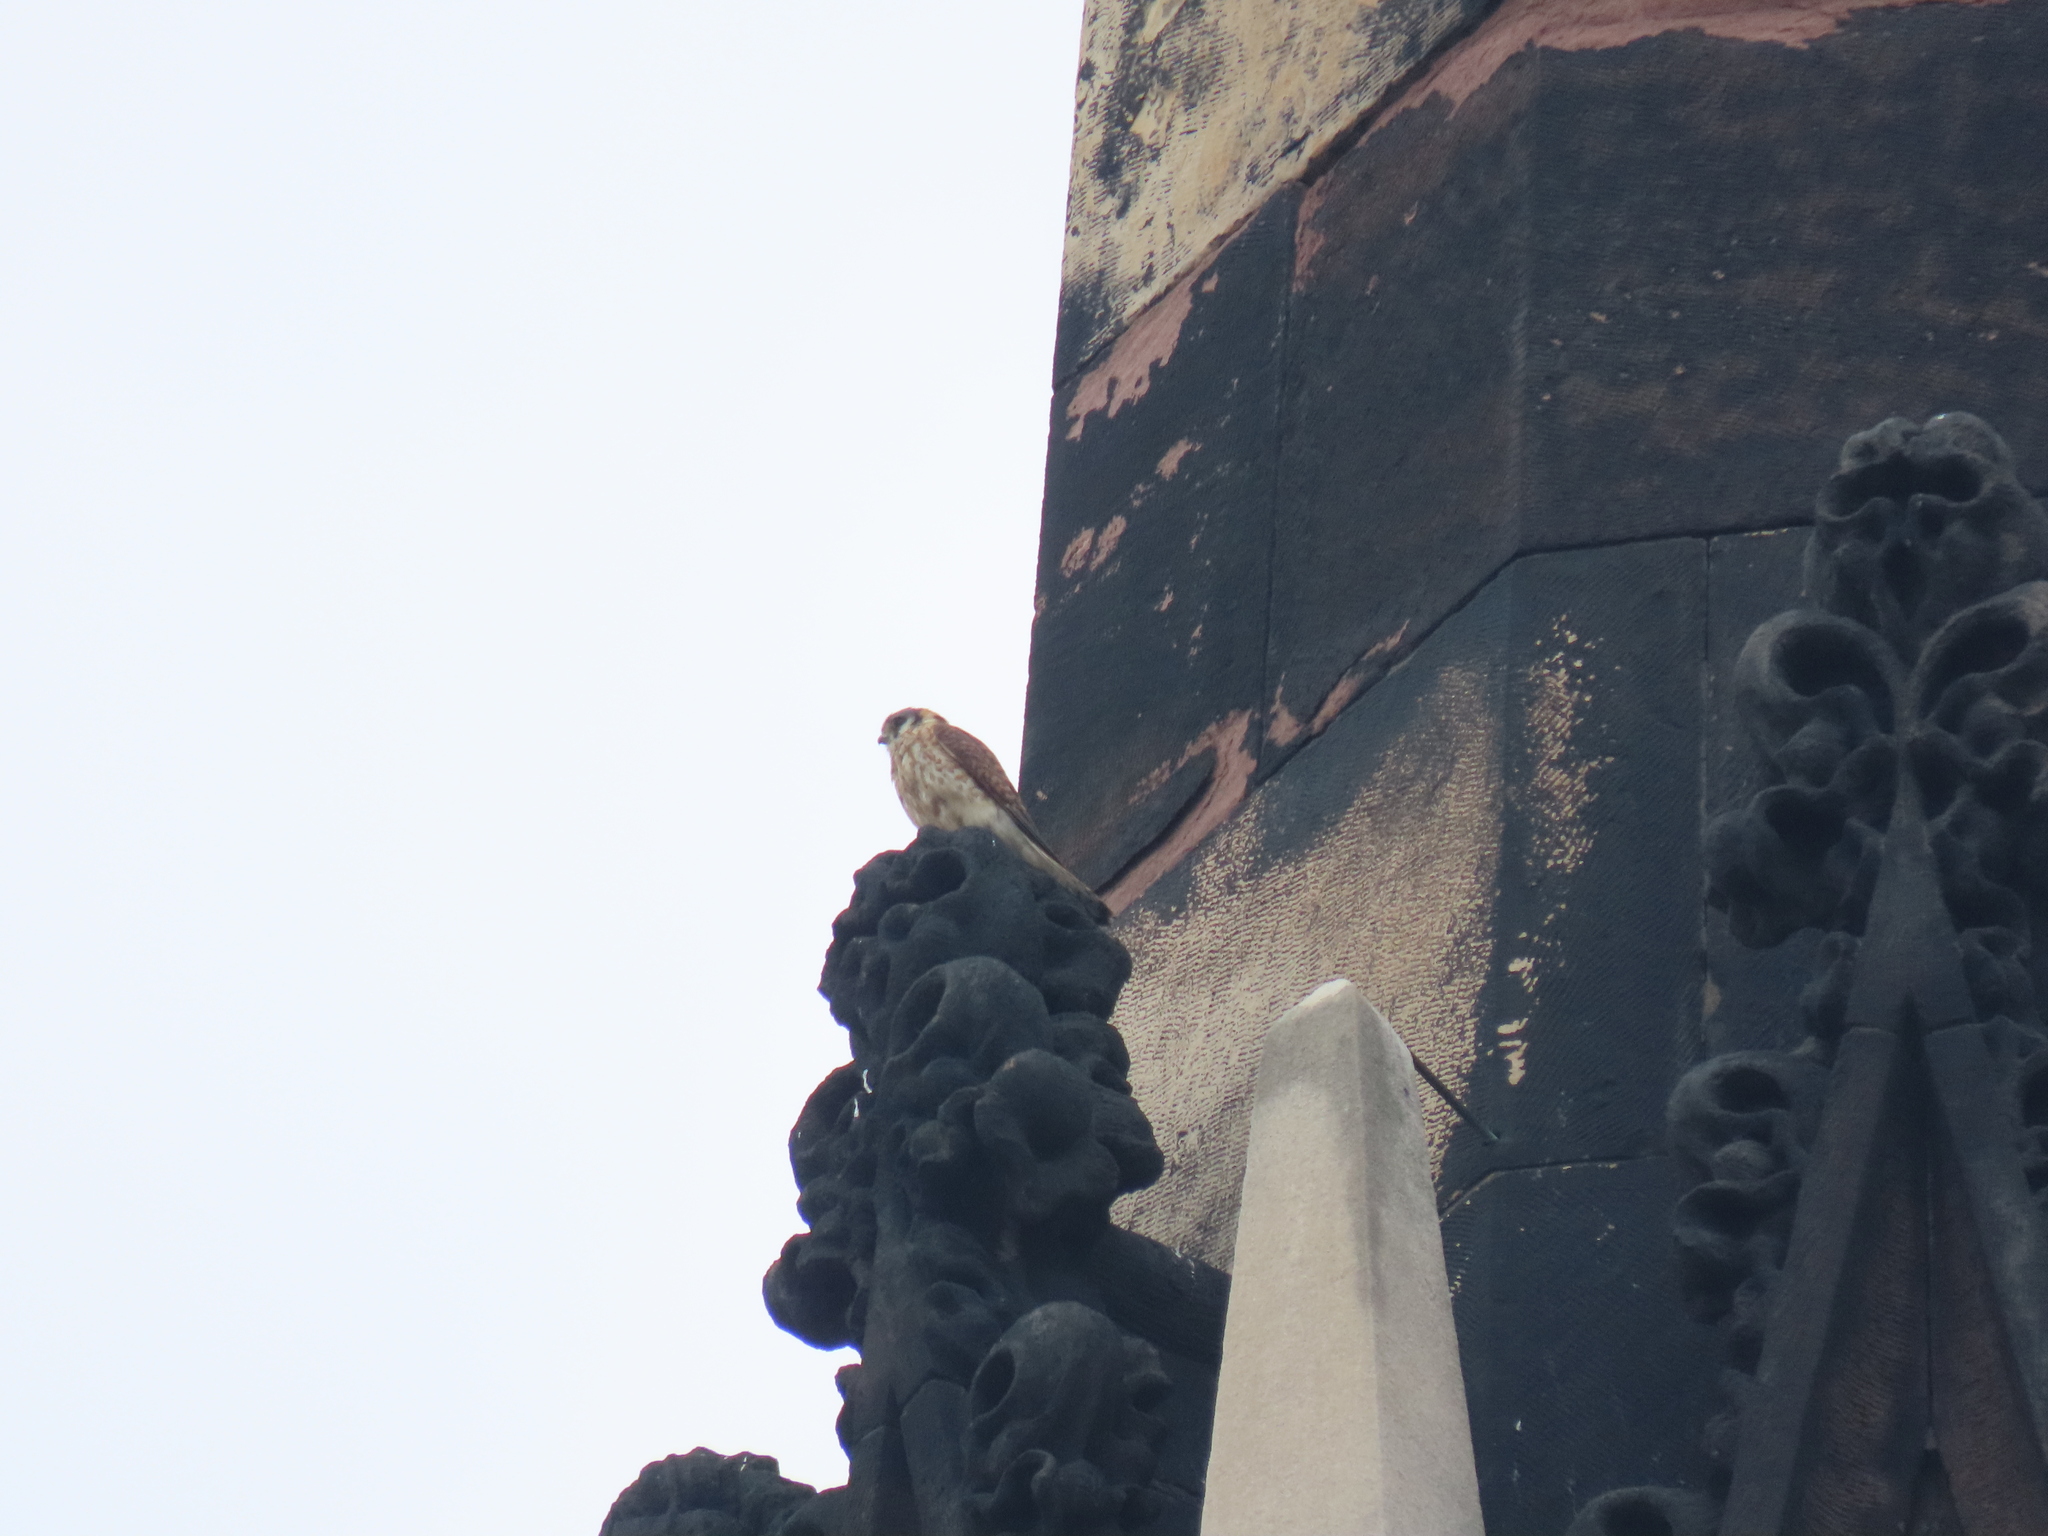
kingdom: Animalia
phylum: Chordata
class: Aves
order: Falconiformes
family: Falconidae
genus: Falco
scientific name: Falco sparverius
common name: American kestrel
